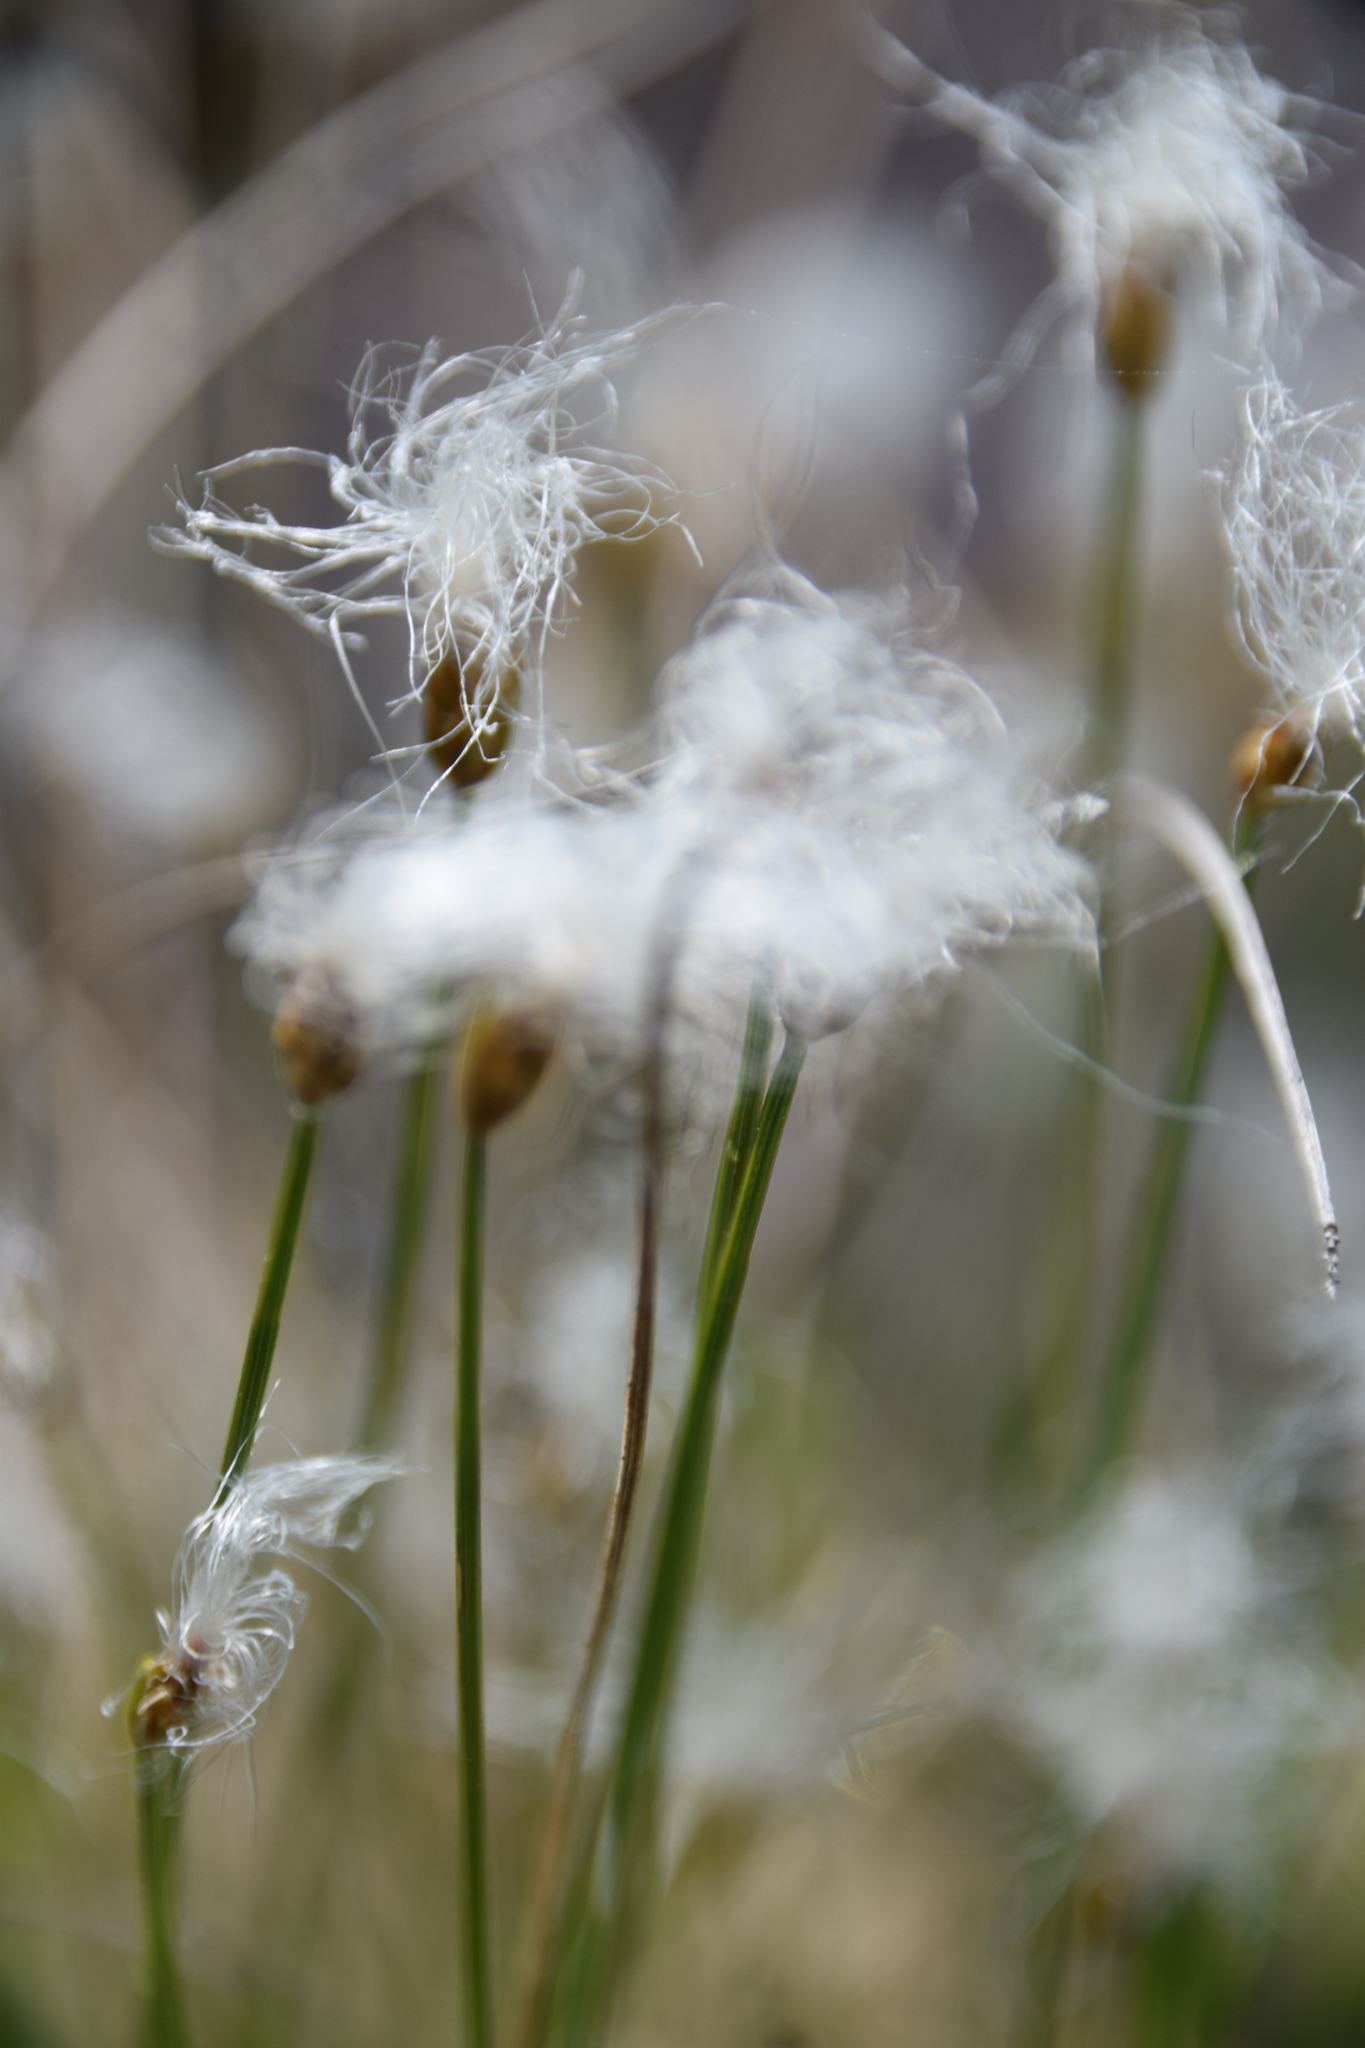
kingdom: Plantae
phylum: Tracheophyta
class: Liliopsida
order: Poales
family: Cyperaceae
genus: Trichophorum
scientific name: Trichophorum alpinum
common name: Alpine bulrush
